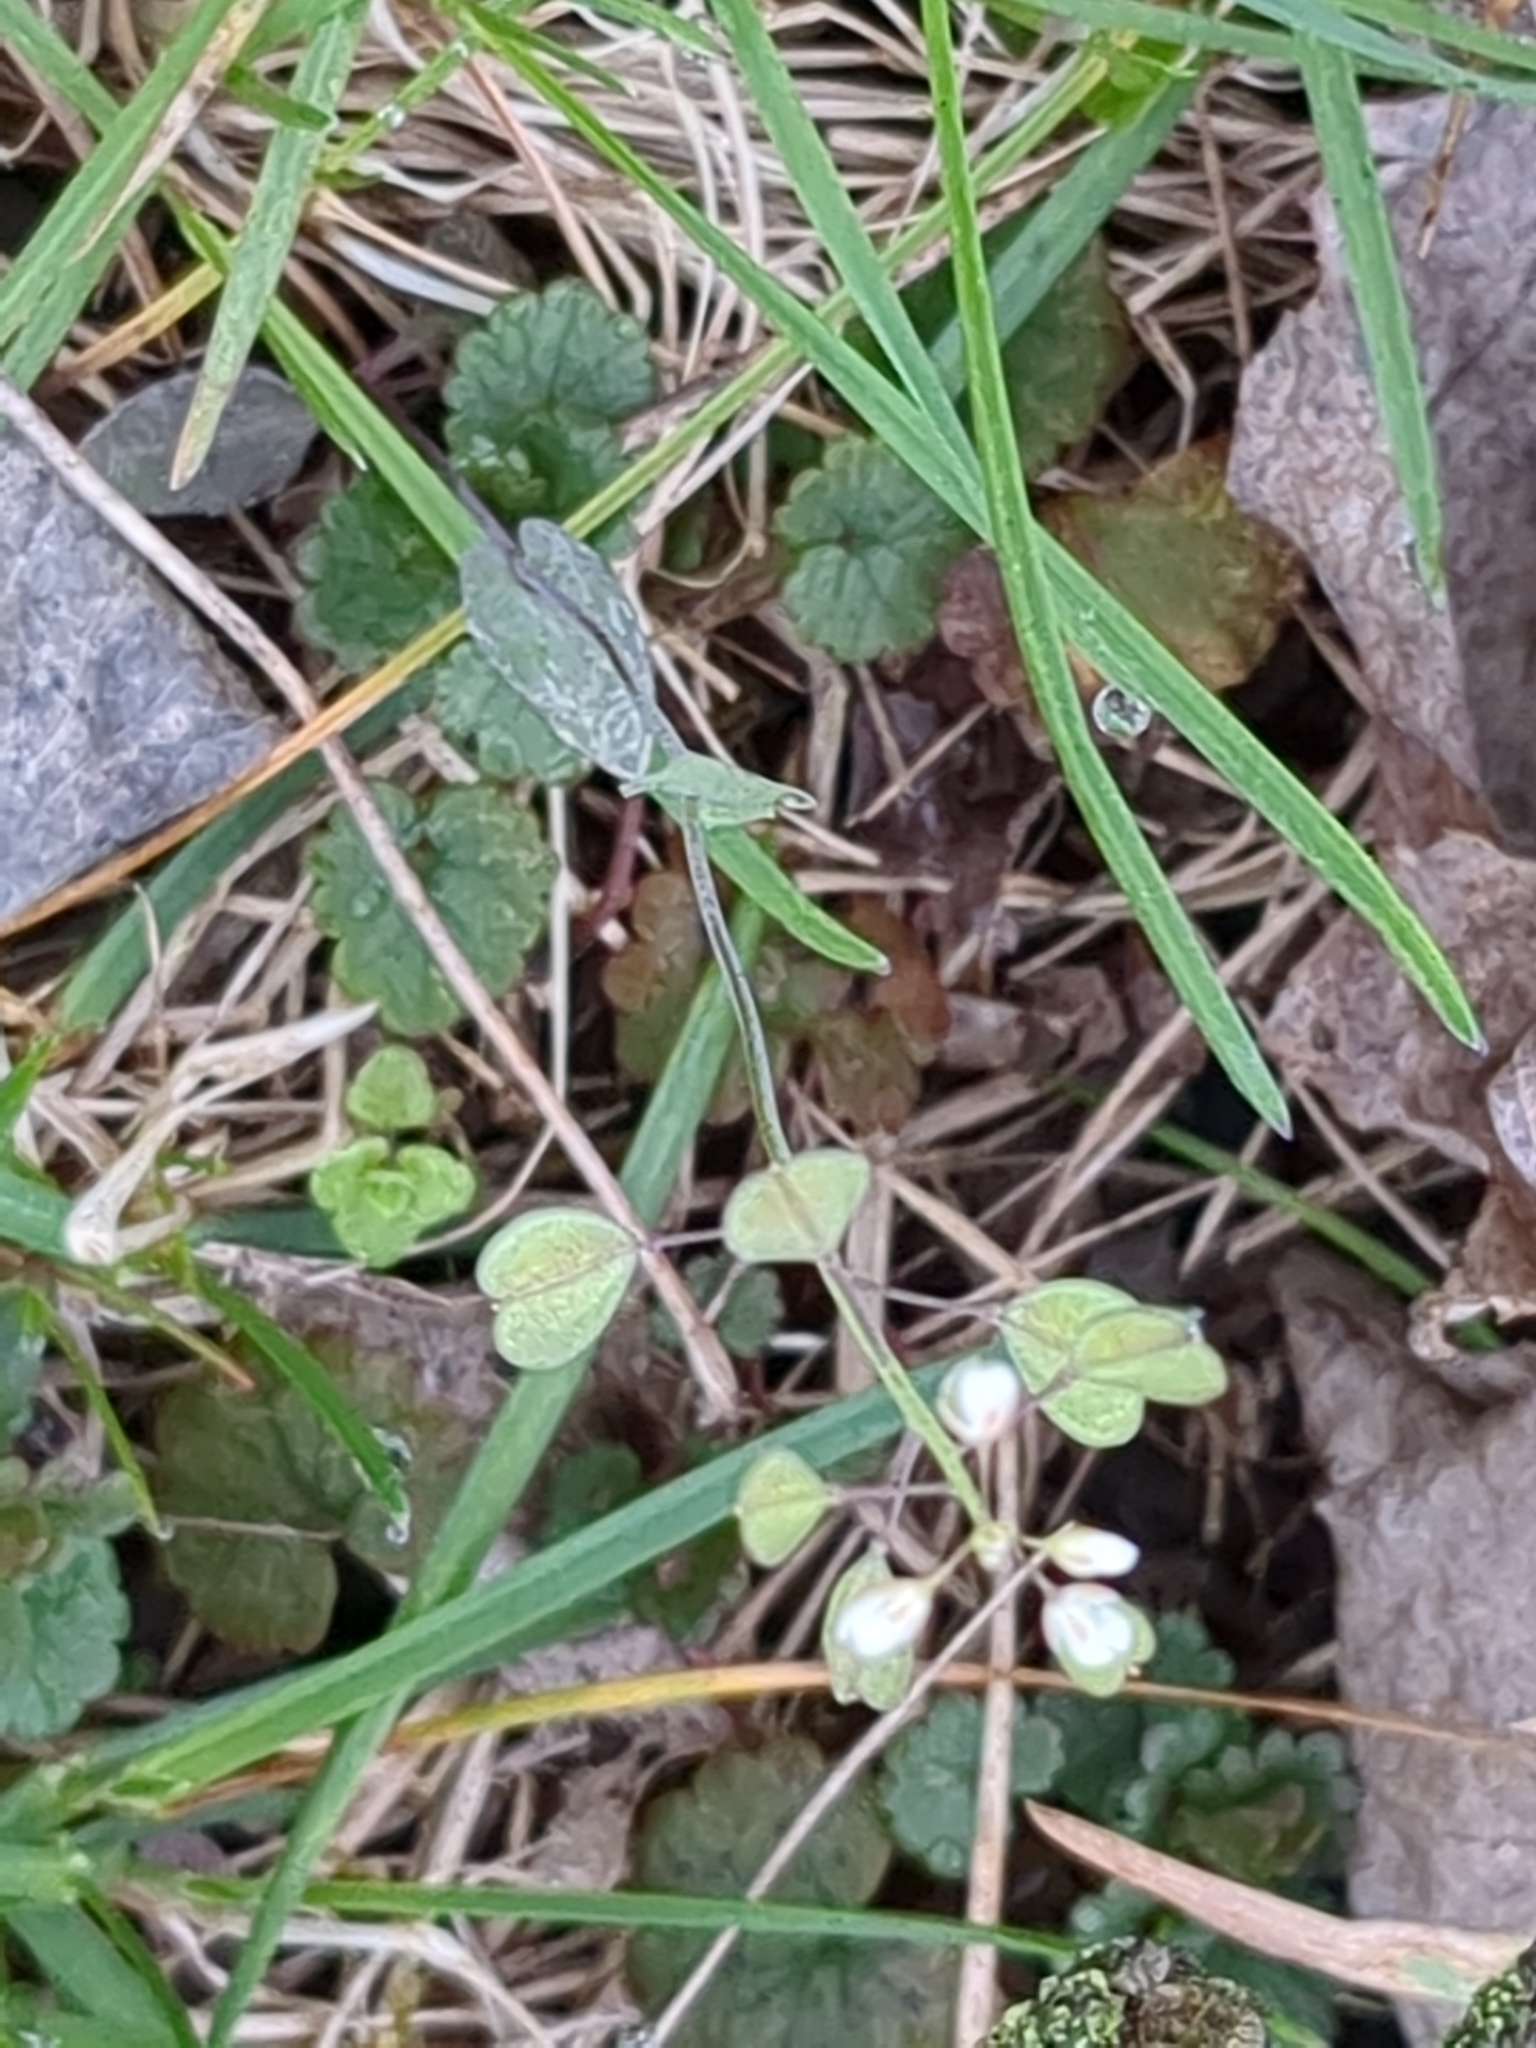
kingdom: Plantae
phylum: Tracheophyta
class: Magnoliopsida
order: Brassicales
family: Brassicaceae
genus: Noccaea
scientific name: Noccaea perfoliata
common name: Perfoliate pennycress
